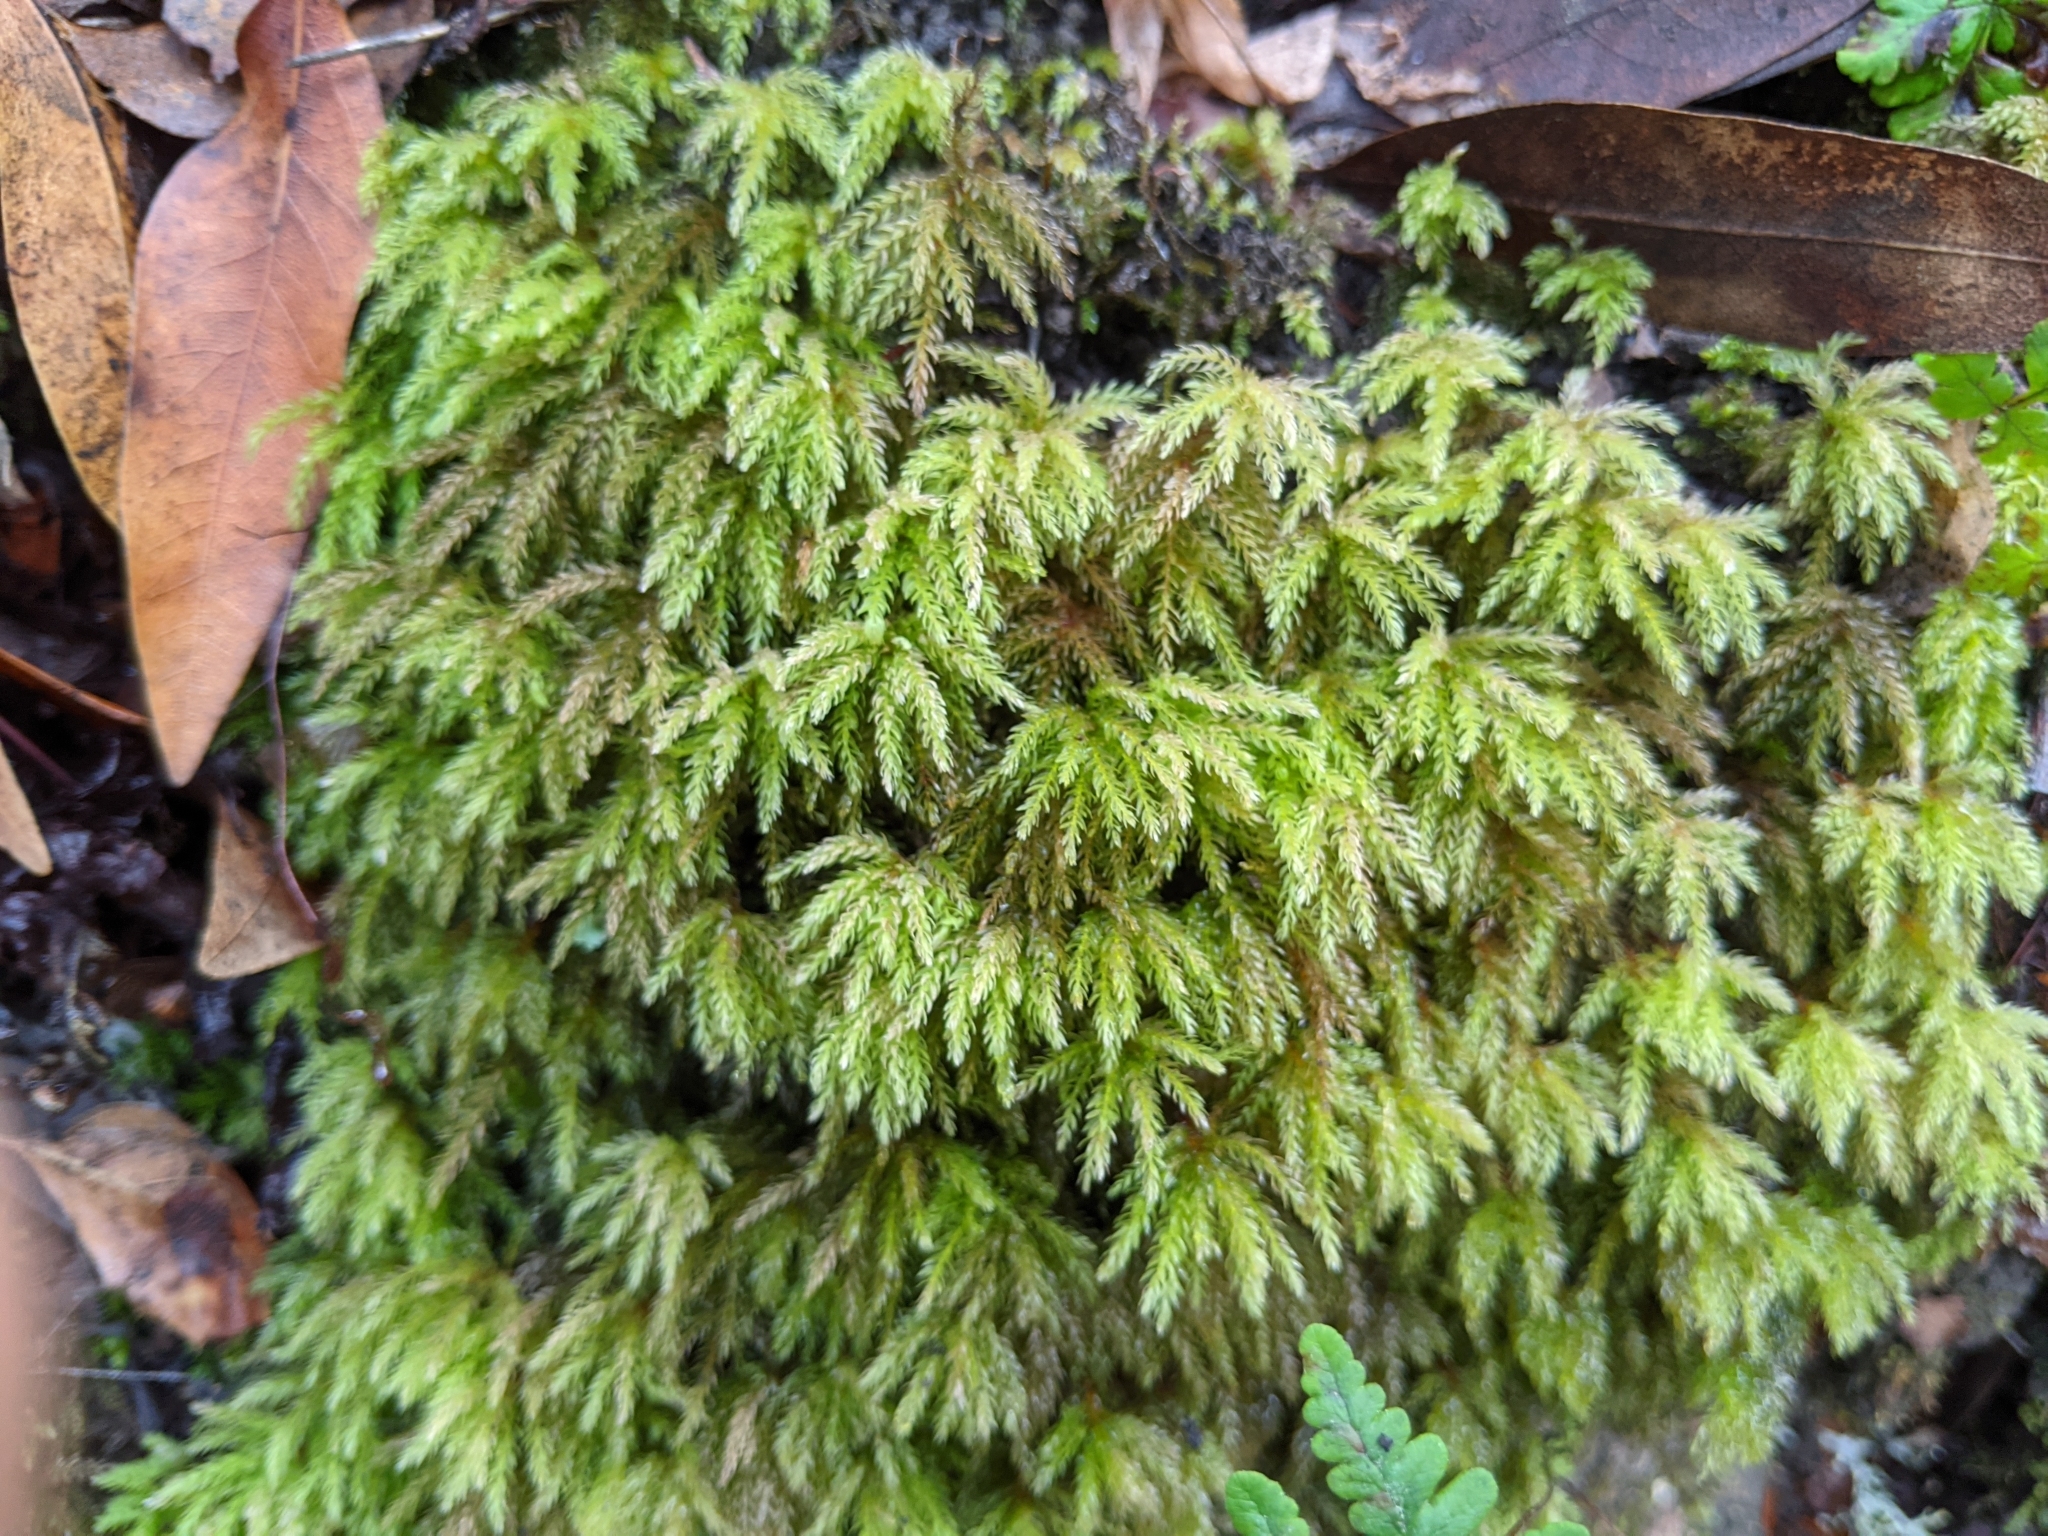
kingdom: Plantae
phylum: Bryophyta
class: Bryopsida
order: Bryales
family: Mniaceae
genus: Leucolepis
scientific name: Leucolepis acanthoneura
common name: Leucolepis umbrella moss
